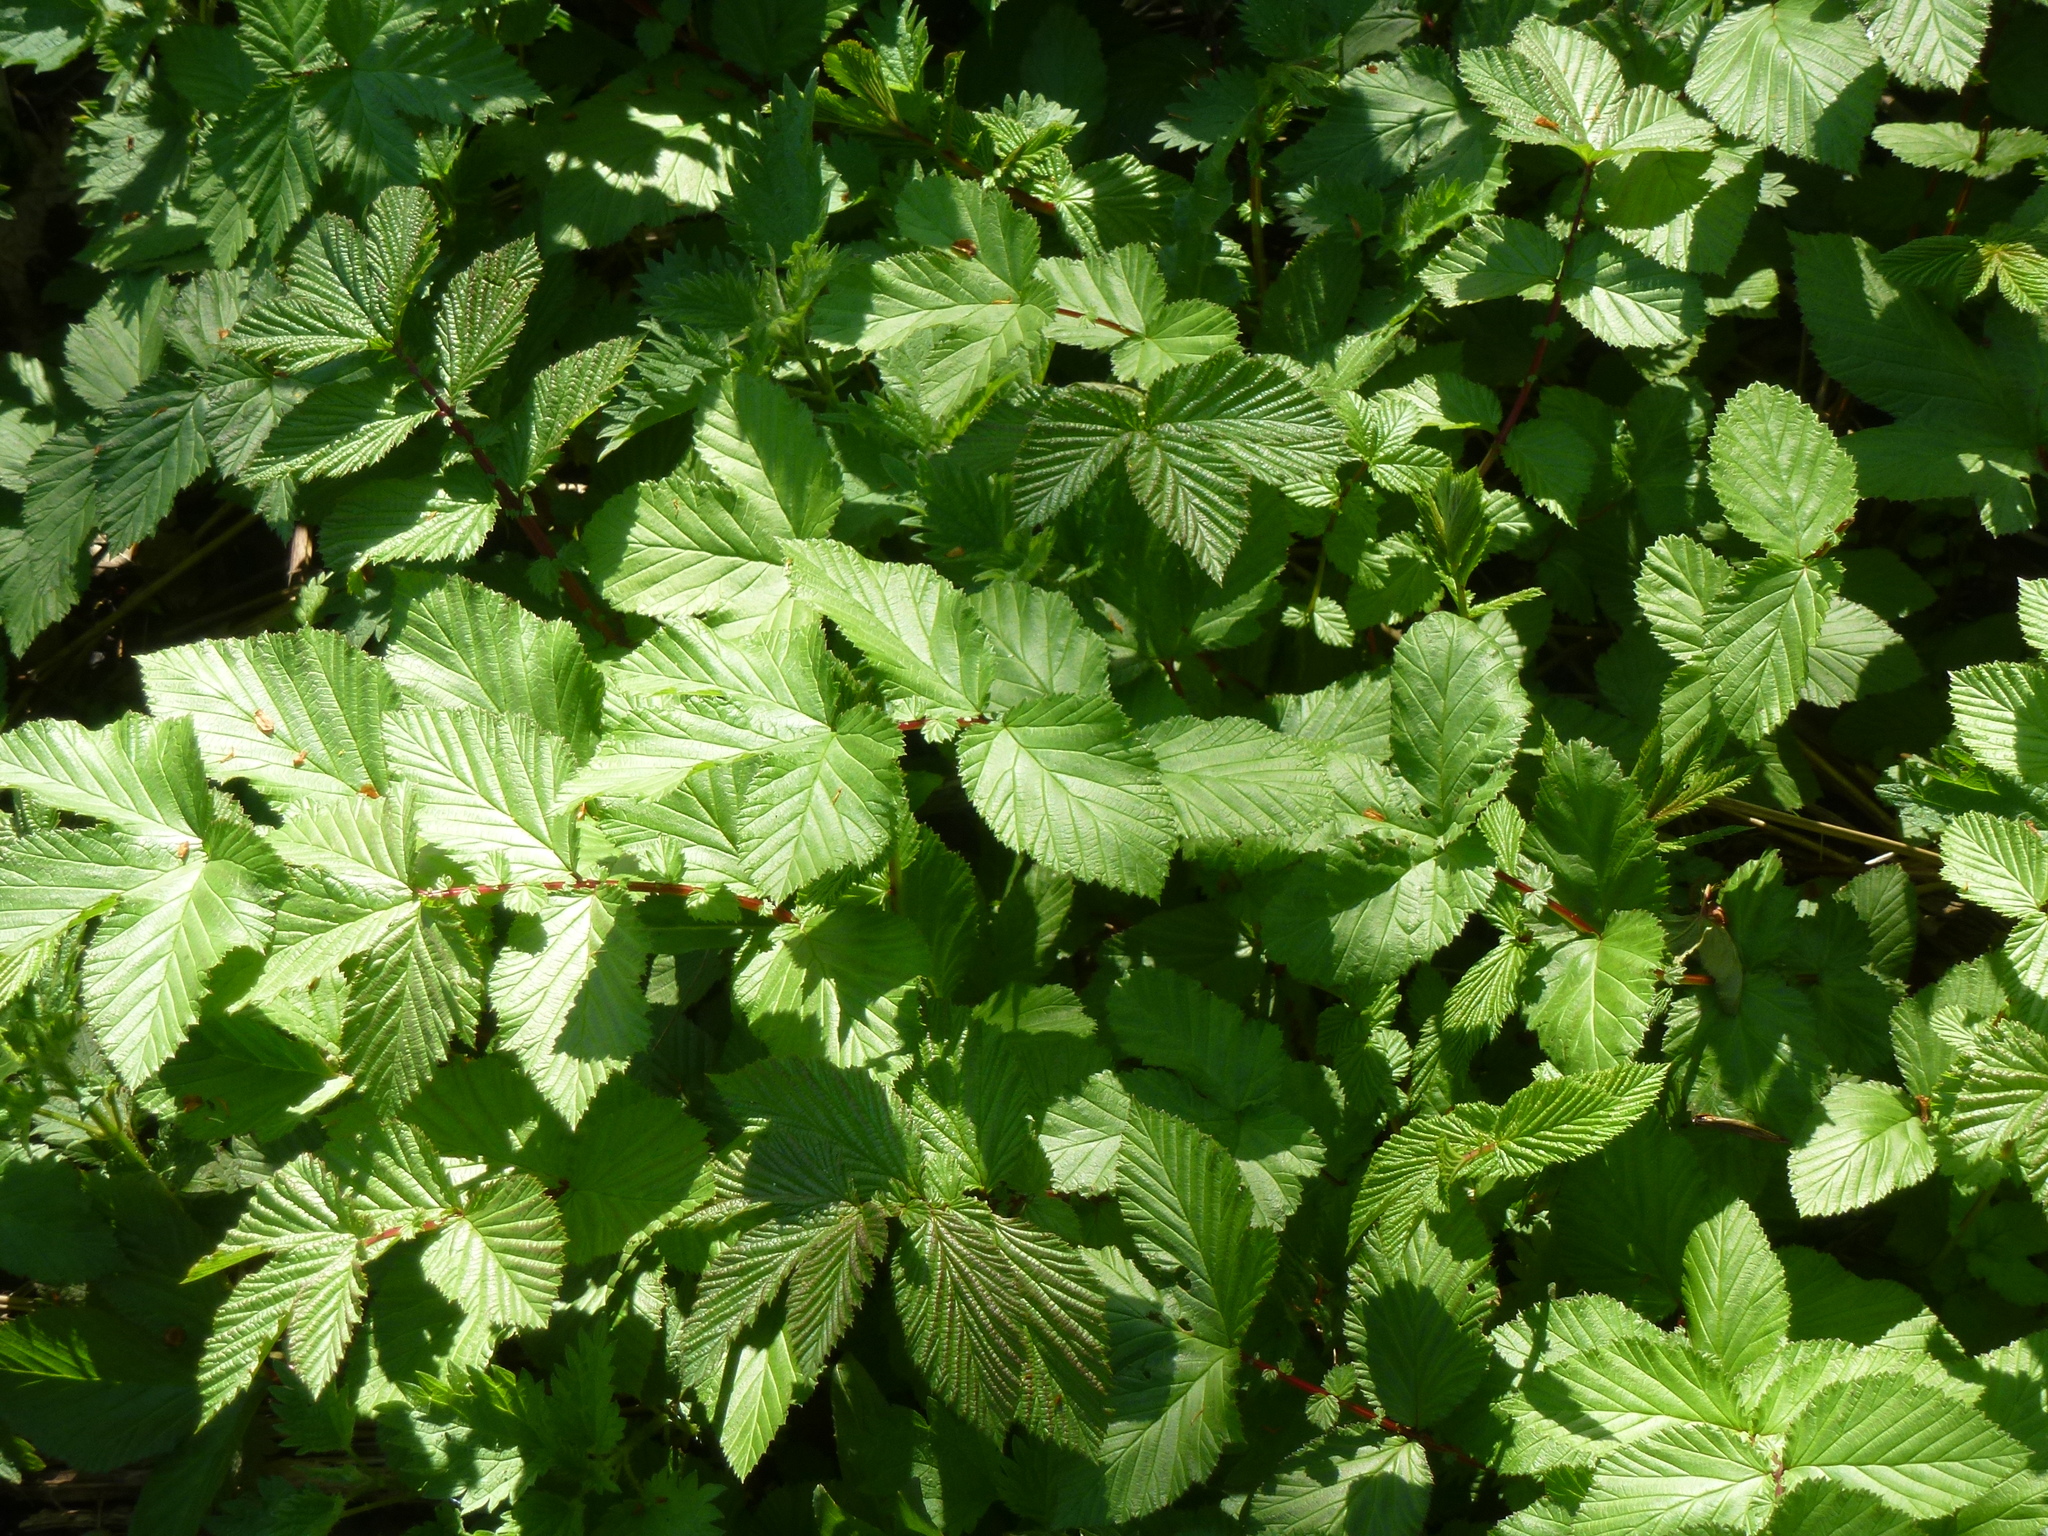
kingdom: Plantae
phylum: Tracheophyta
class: Magnoliopsida
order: Rosales
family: Rosaceae
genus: Filipendula
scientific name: Filipendula ulmaria
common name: Meadowsweet
